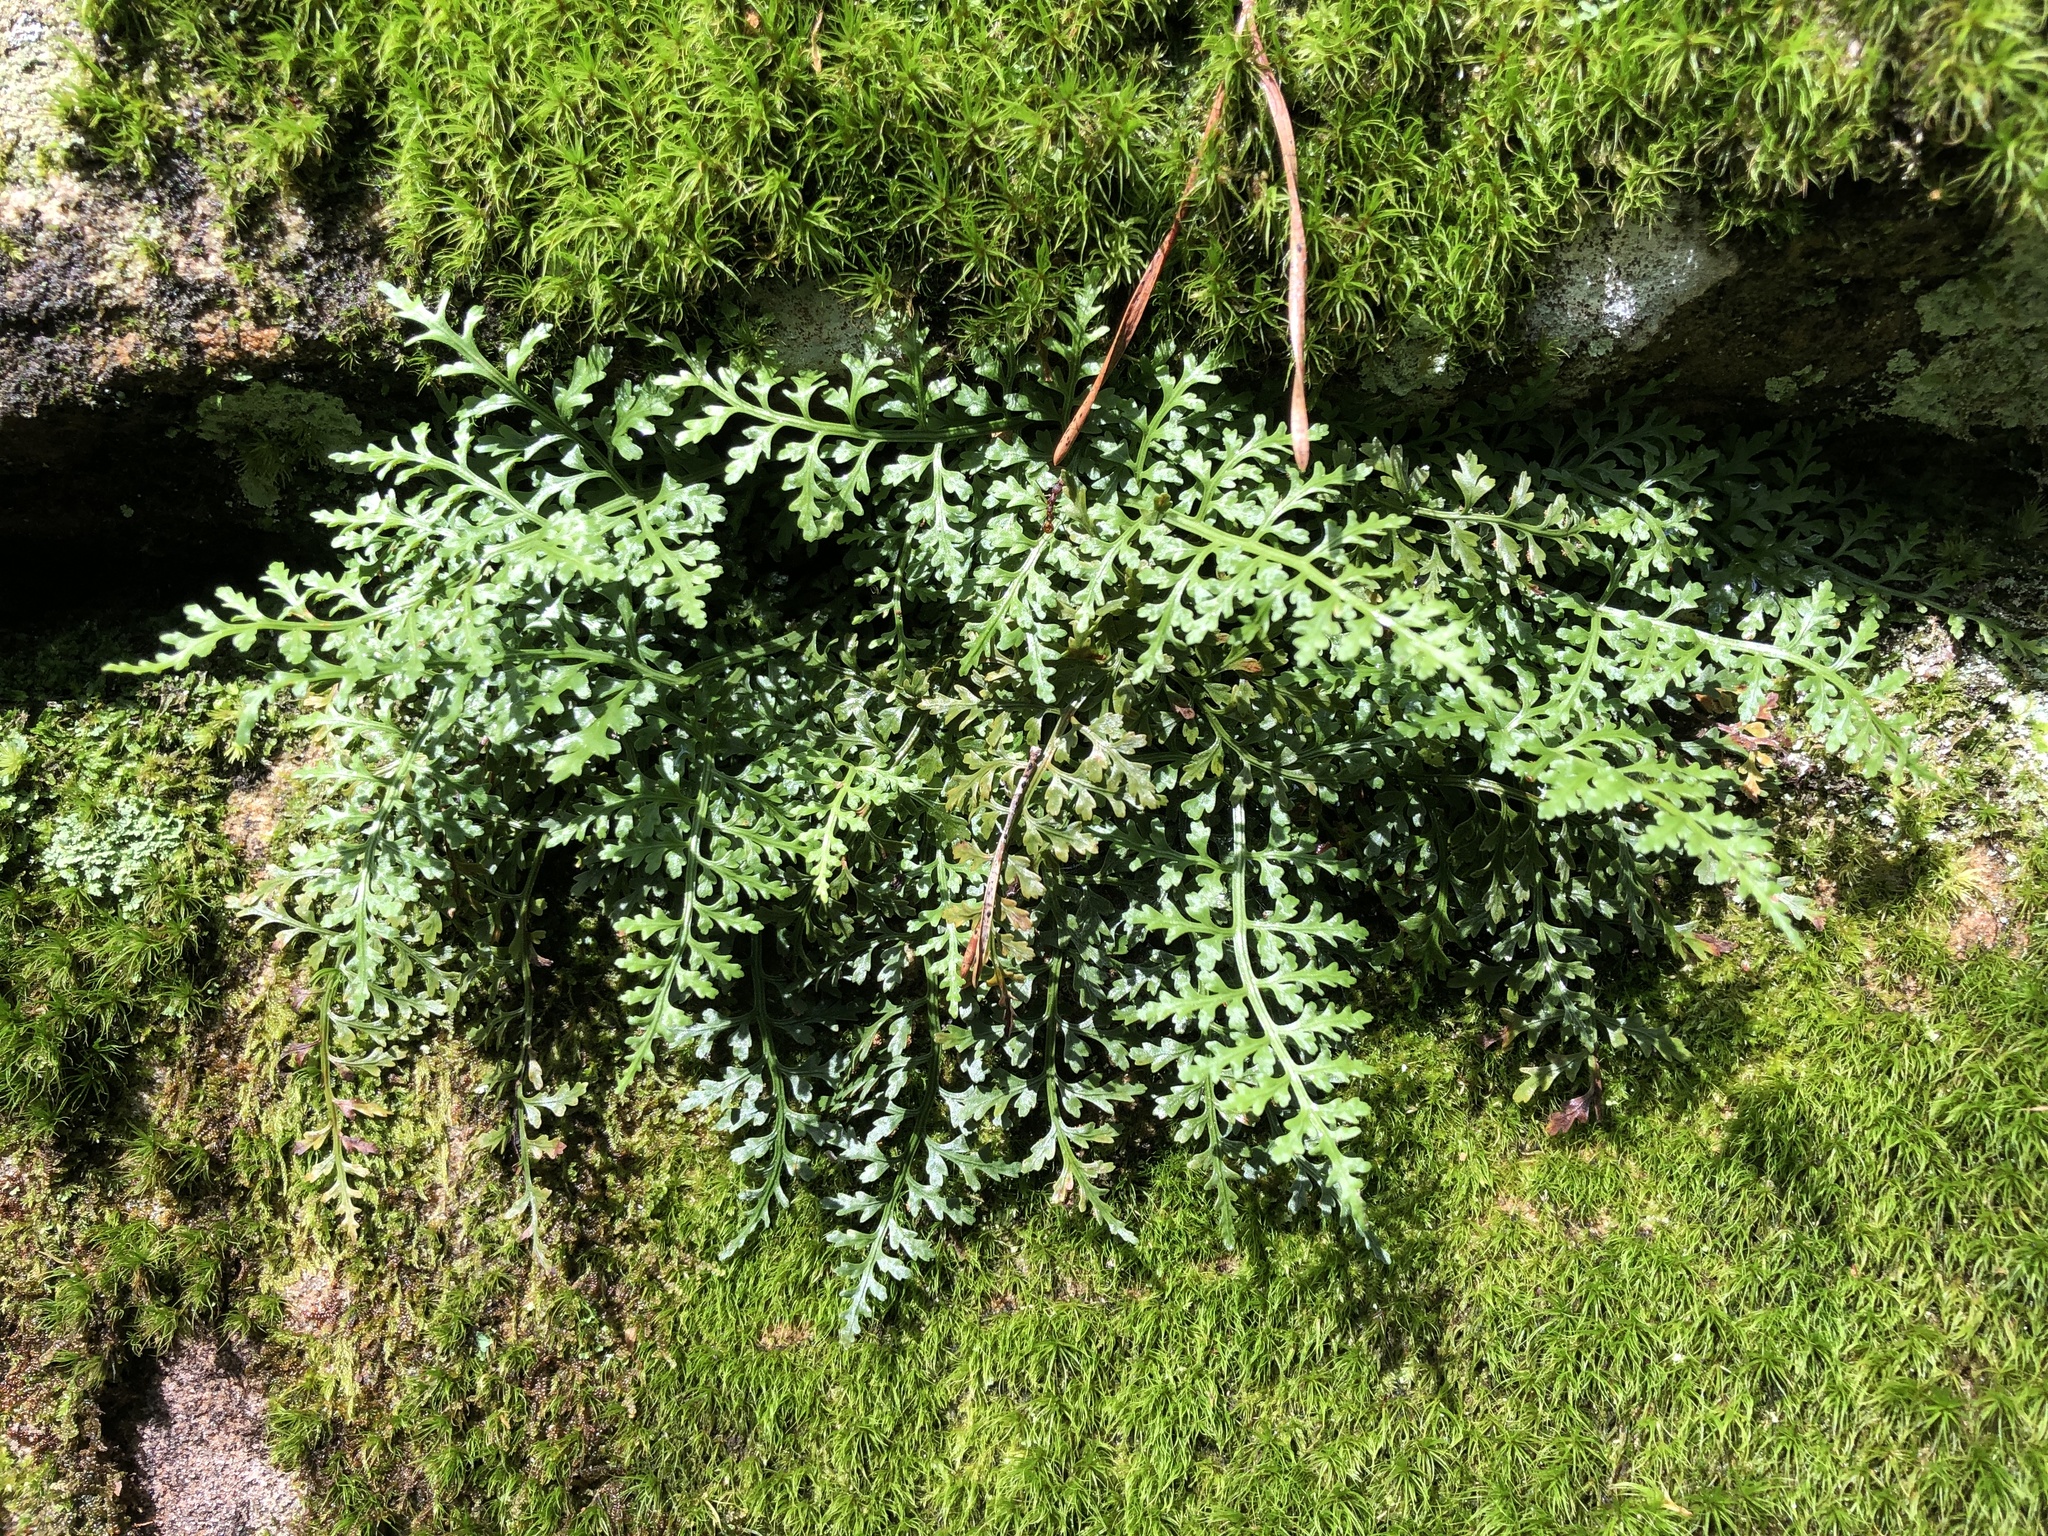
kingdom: Plantae
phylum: Tracheophyta
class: Polypodiopsida
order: Polypodiales
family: Aspleniaceae
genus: Asplenium
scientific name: Asplenium montanum
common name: Mountain spleenwort
